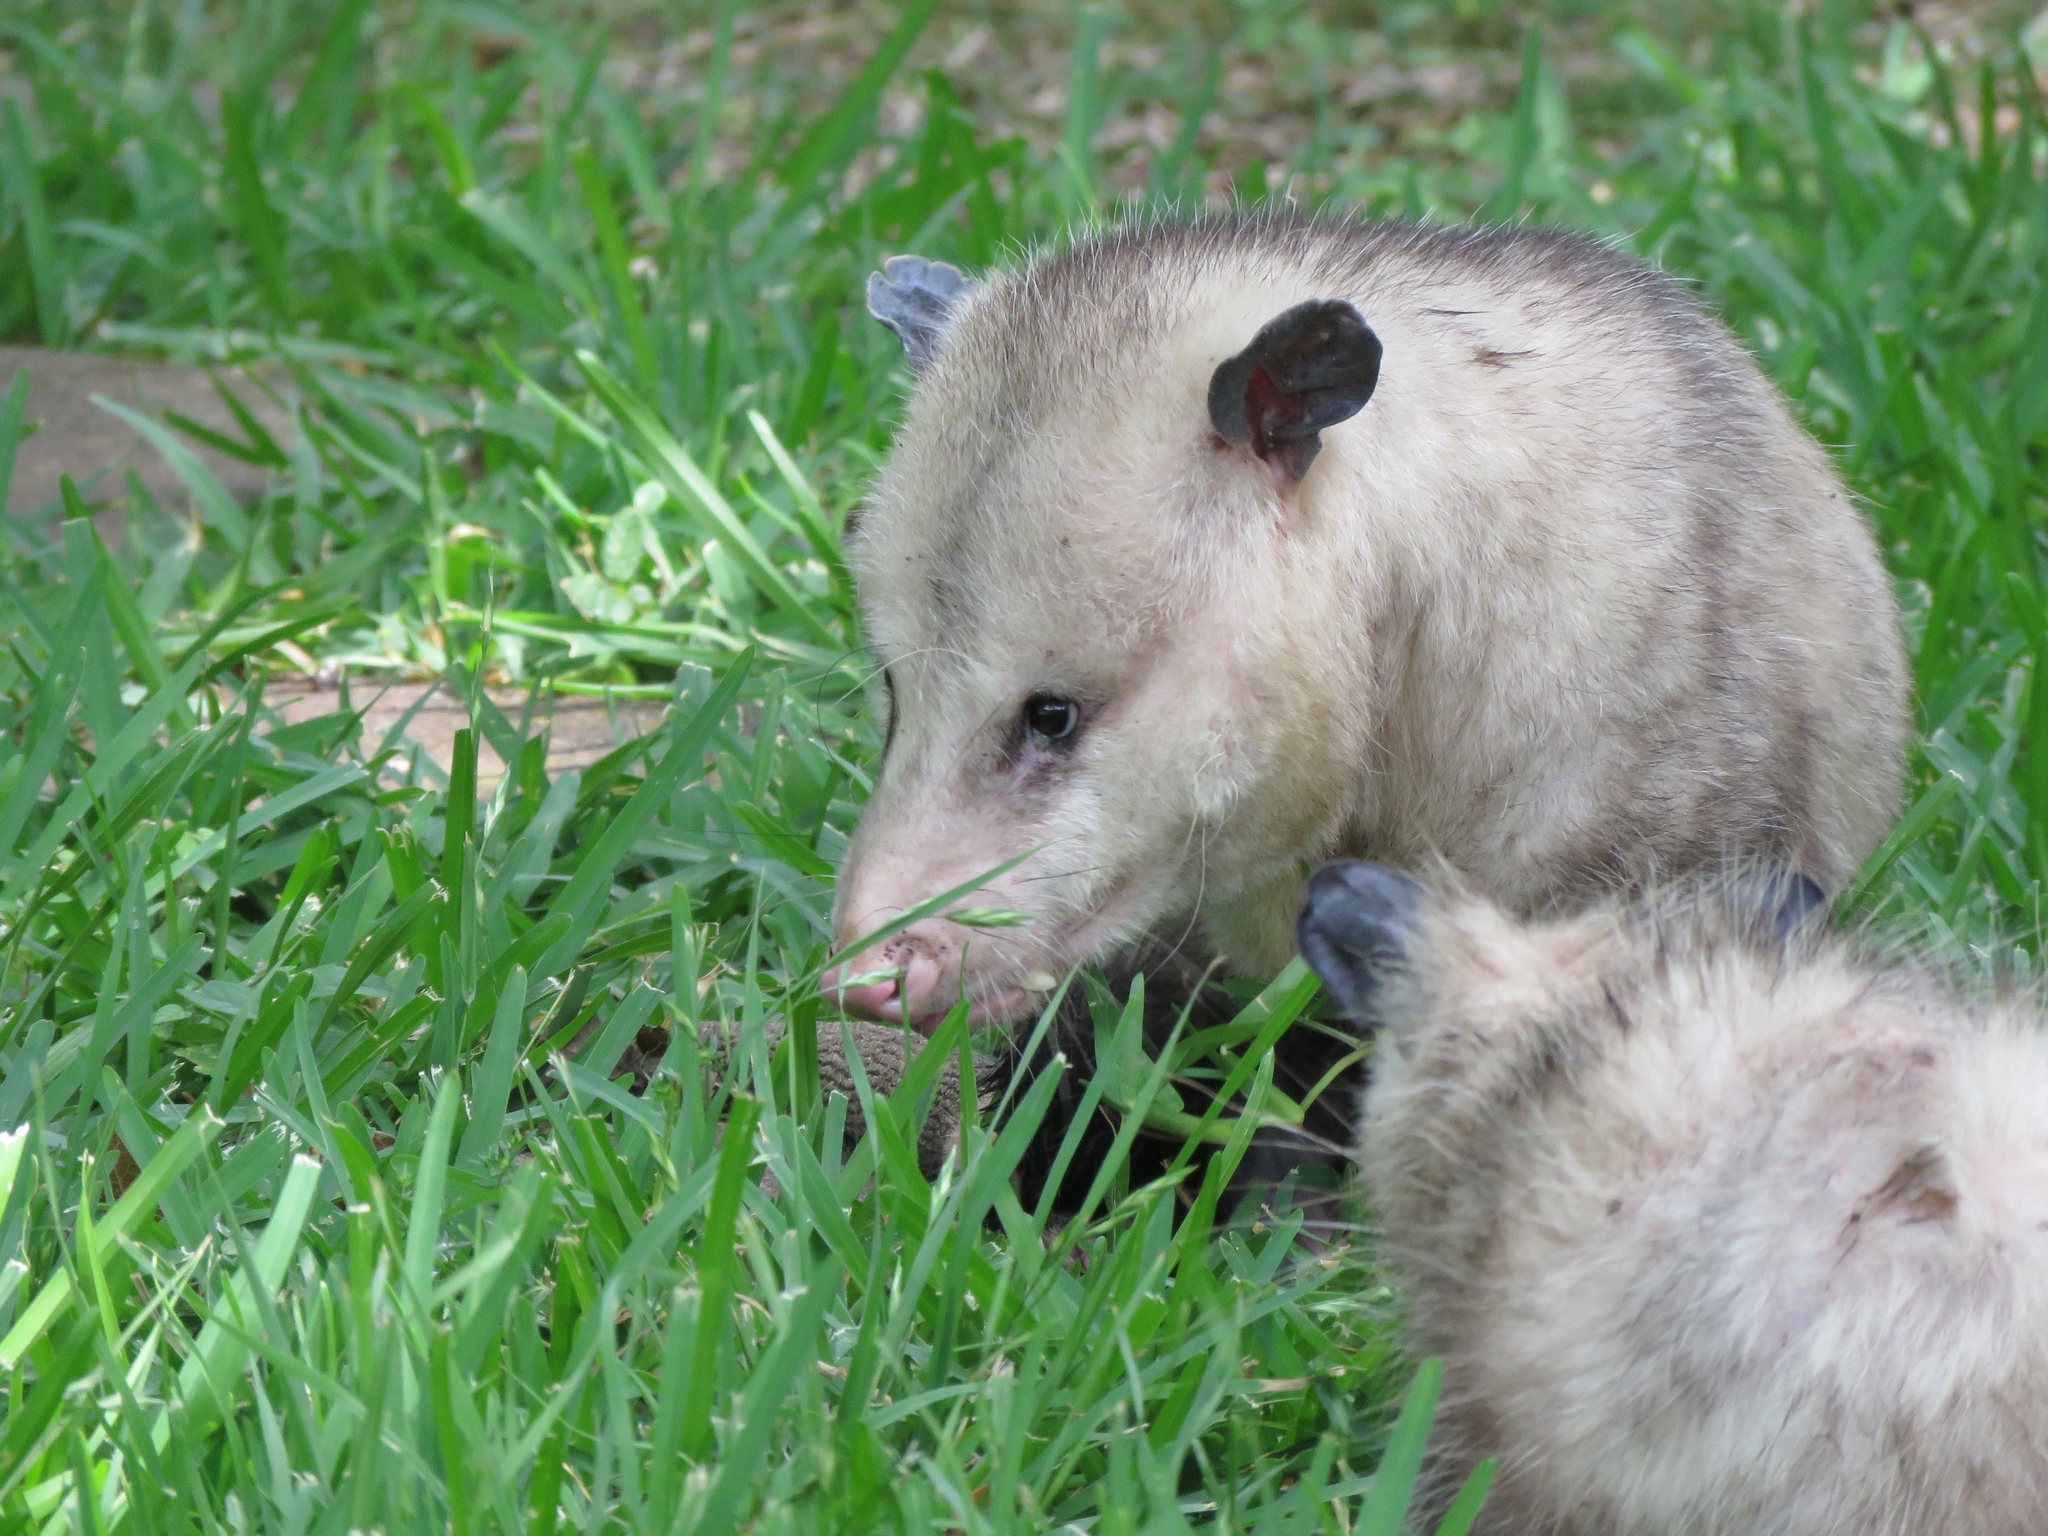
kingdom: Animalia
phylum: Chordata
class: Mammalia
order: Didelphimorphia
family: Didelphidae
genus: Didelphis
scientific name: Didelphis virginiana
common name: Virginia opossum
